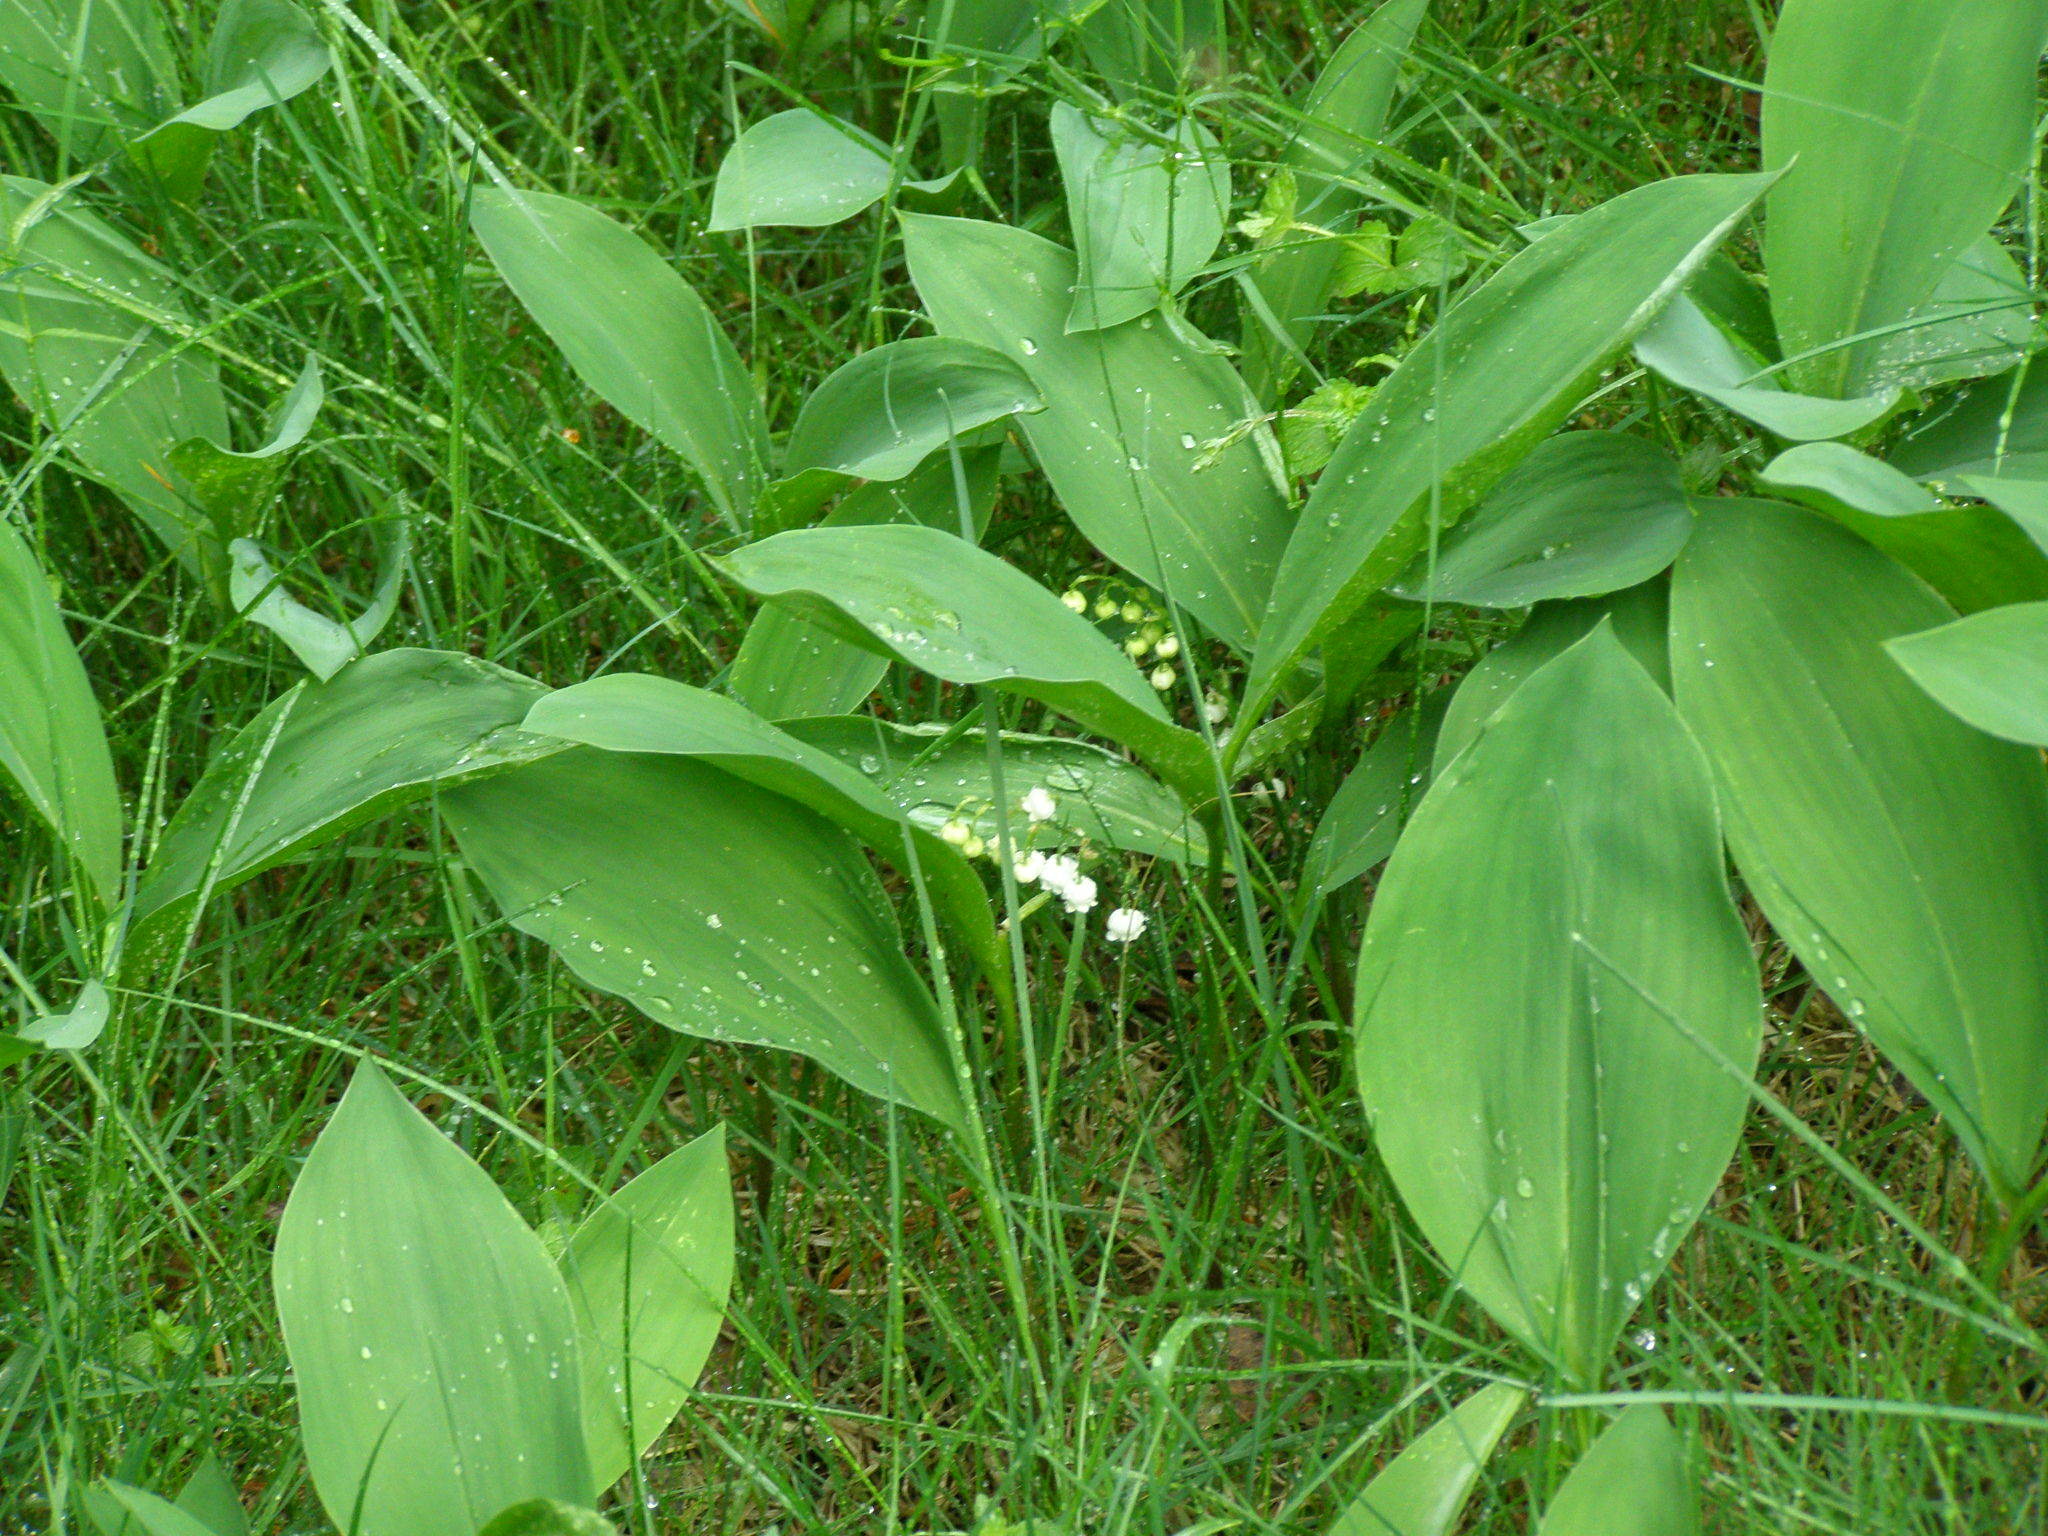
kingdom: Plantae
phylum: Tracheophyta
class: Liliopsida
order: Asparagales
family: Asparagaceae
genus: Convallaria
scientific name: Convallaria majalis
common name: Lily-of-the-valley
